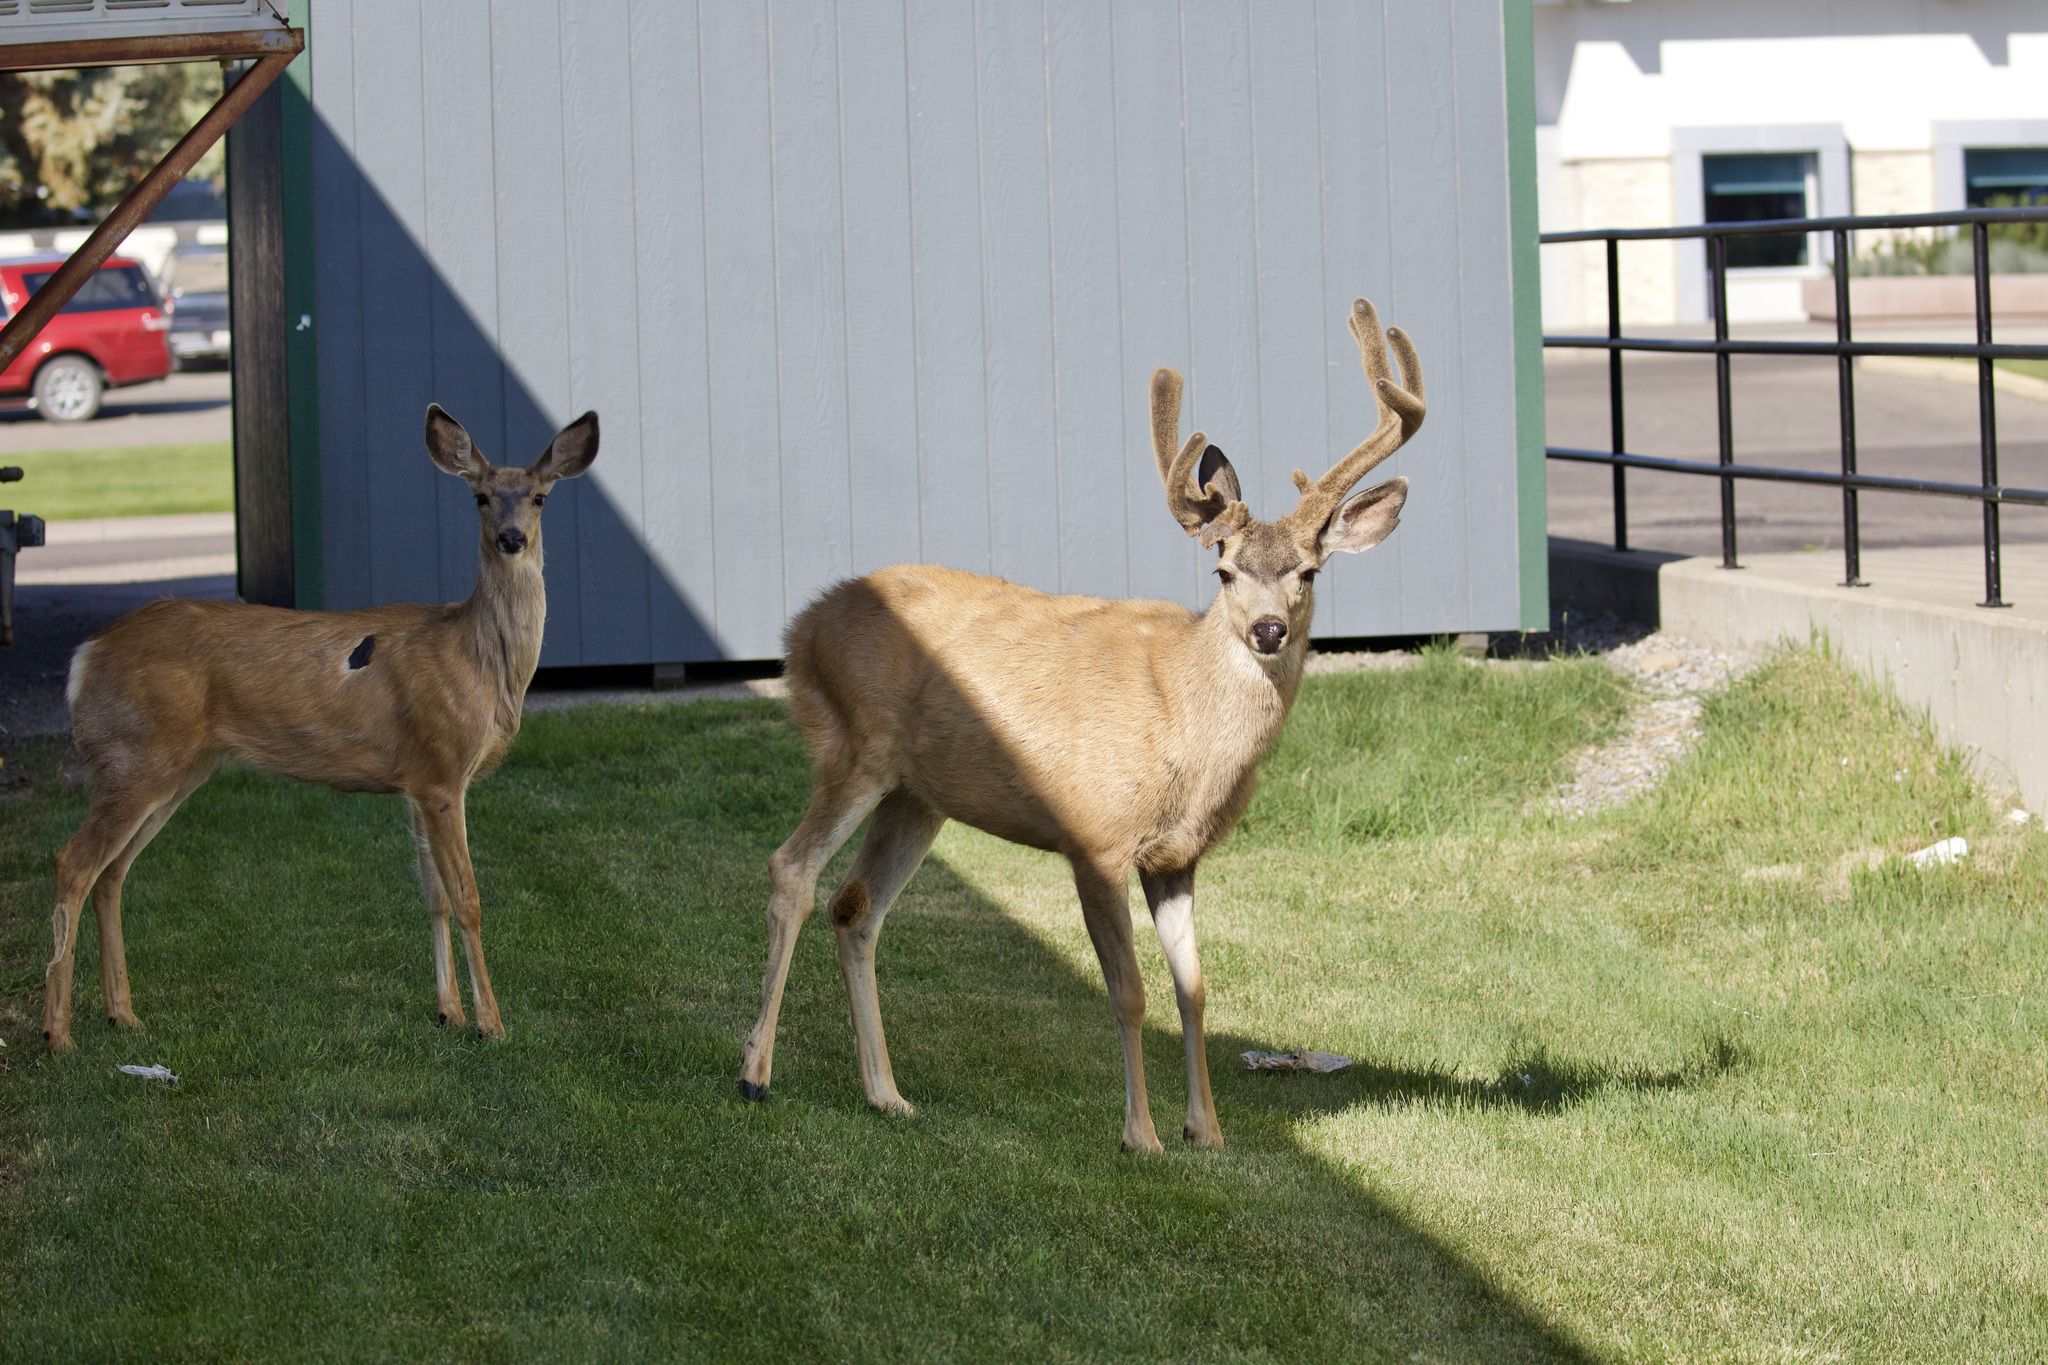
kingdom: Animalia
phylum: Chordata
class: Mammalia
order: Artiodactyla
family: Cervidae
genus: Odocoileus
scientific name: Odocoileus hemionus
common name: Mule deer
